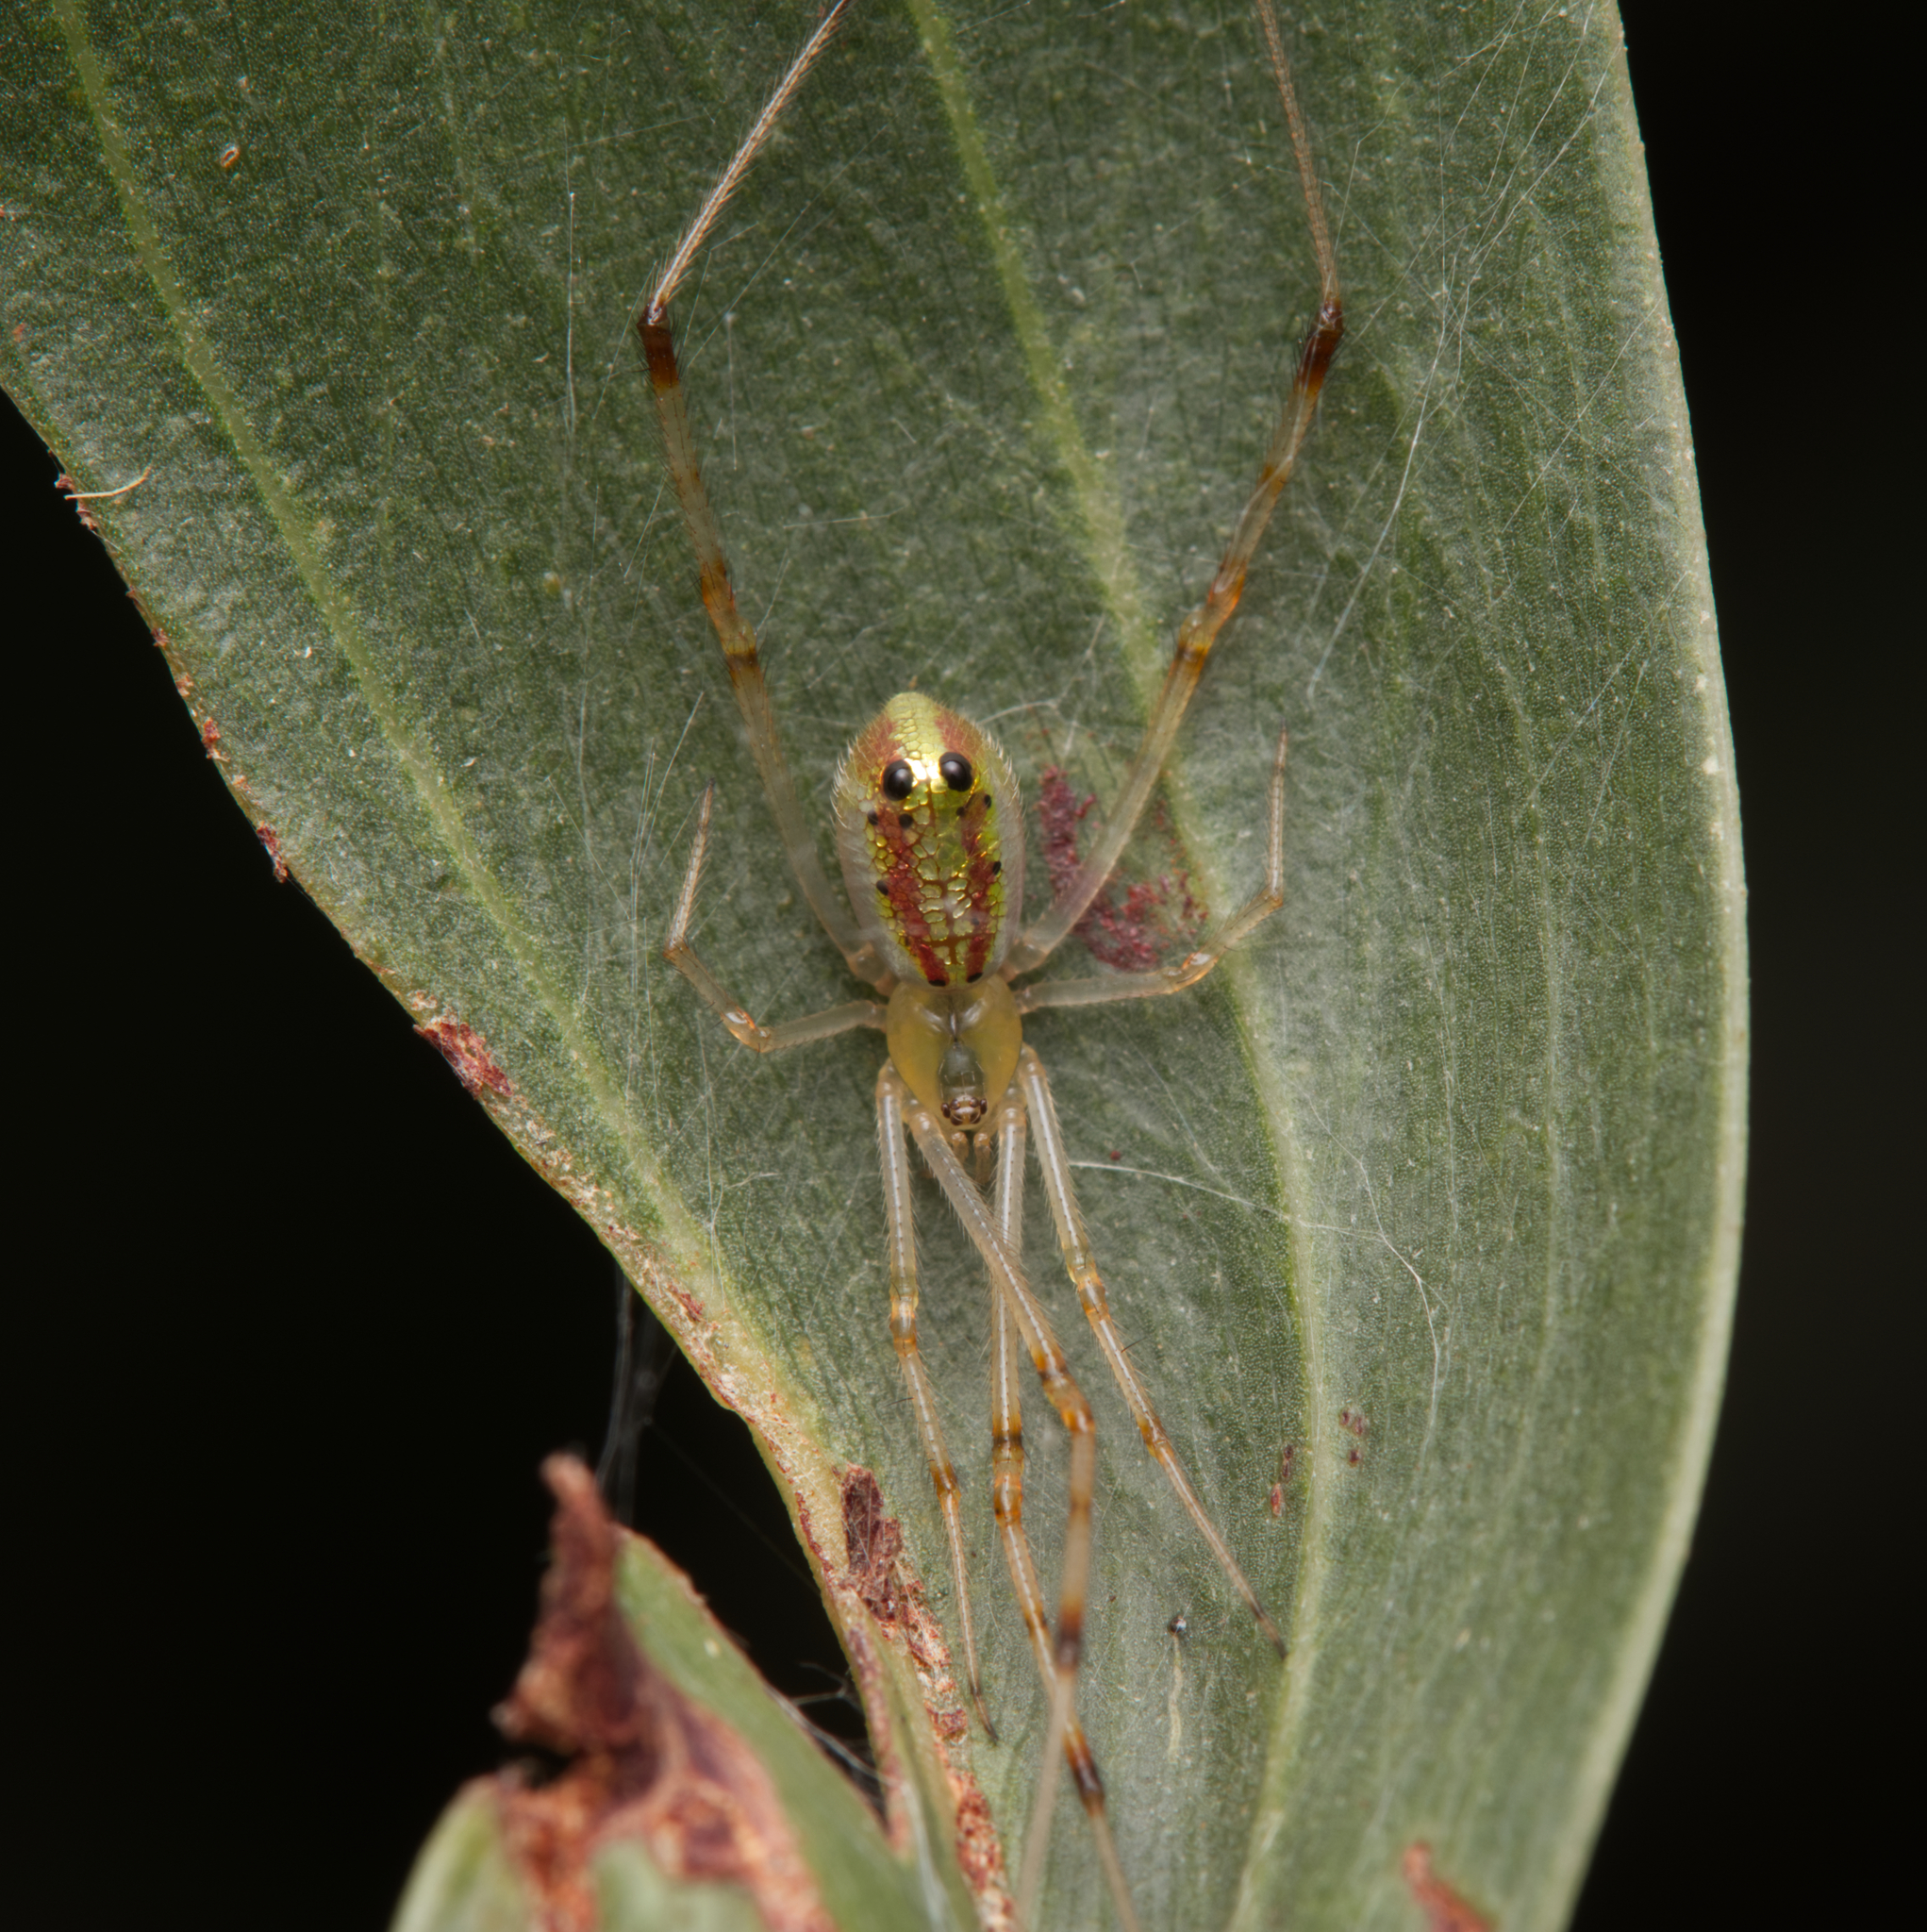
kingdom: Animalia
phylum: Arthropoda
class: Arachnida
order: Araneae
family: Theridiidae
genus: Thwaitesia
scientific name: Thwaitesia nigronodosa
